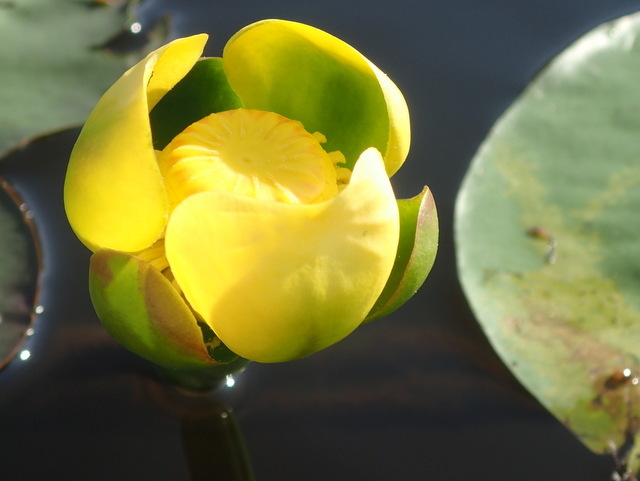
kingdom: Plantae
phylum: Tracheophyta
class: Magnoliopsida
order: Nymphaeales
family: Nymphaeaceae
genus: Nuphar
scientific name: Nuphar advena
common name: Spatter-dock
